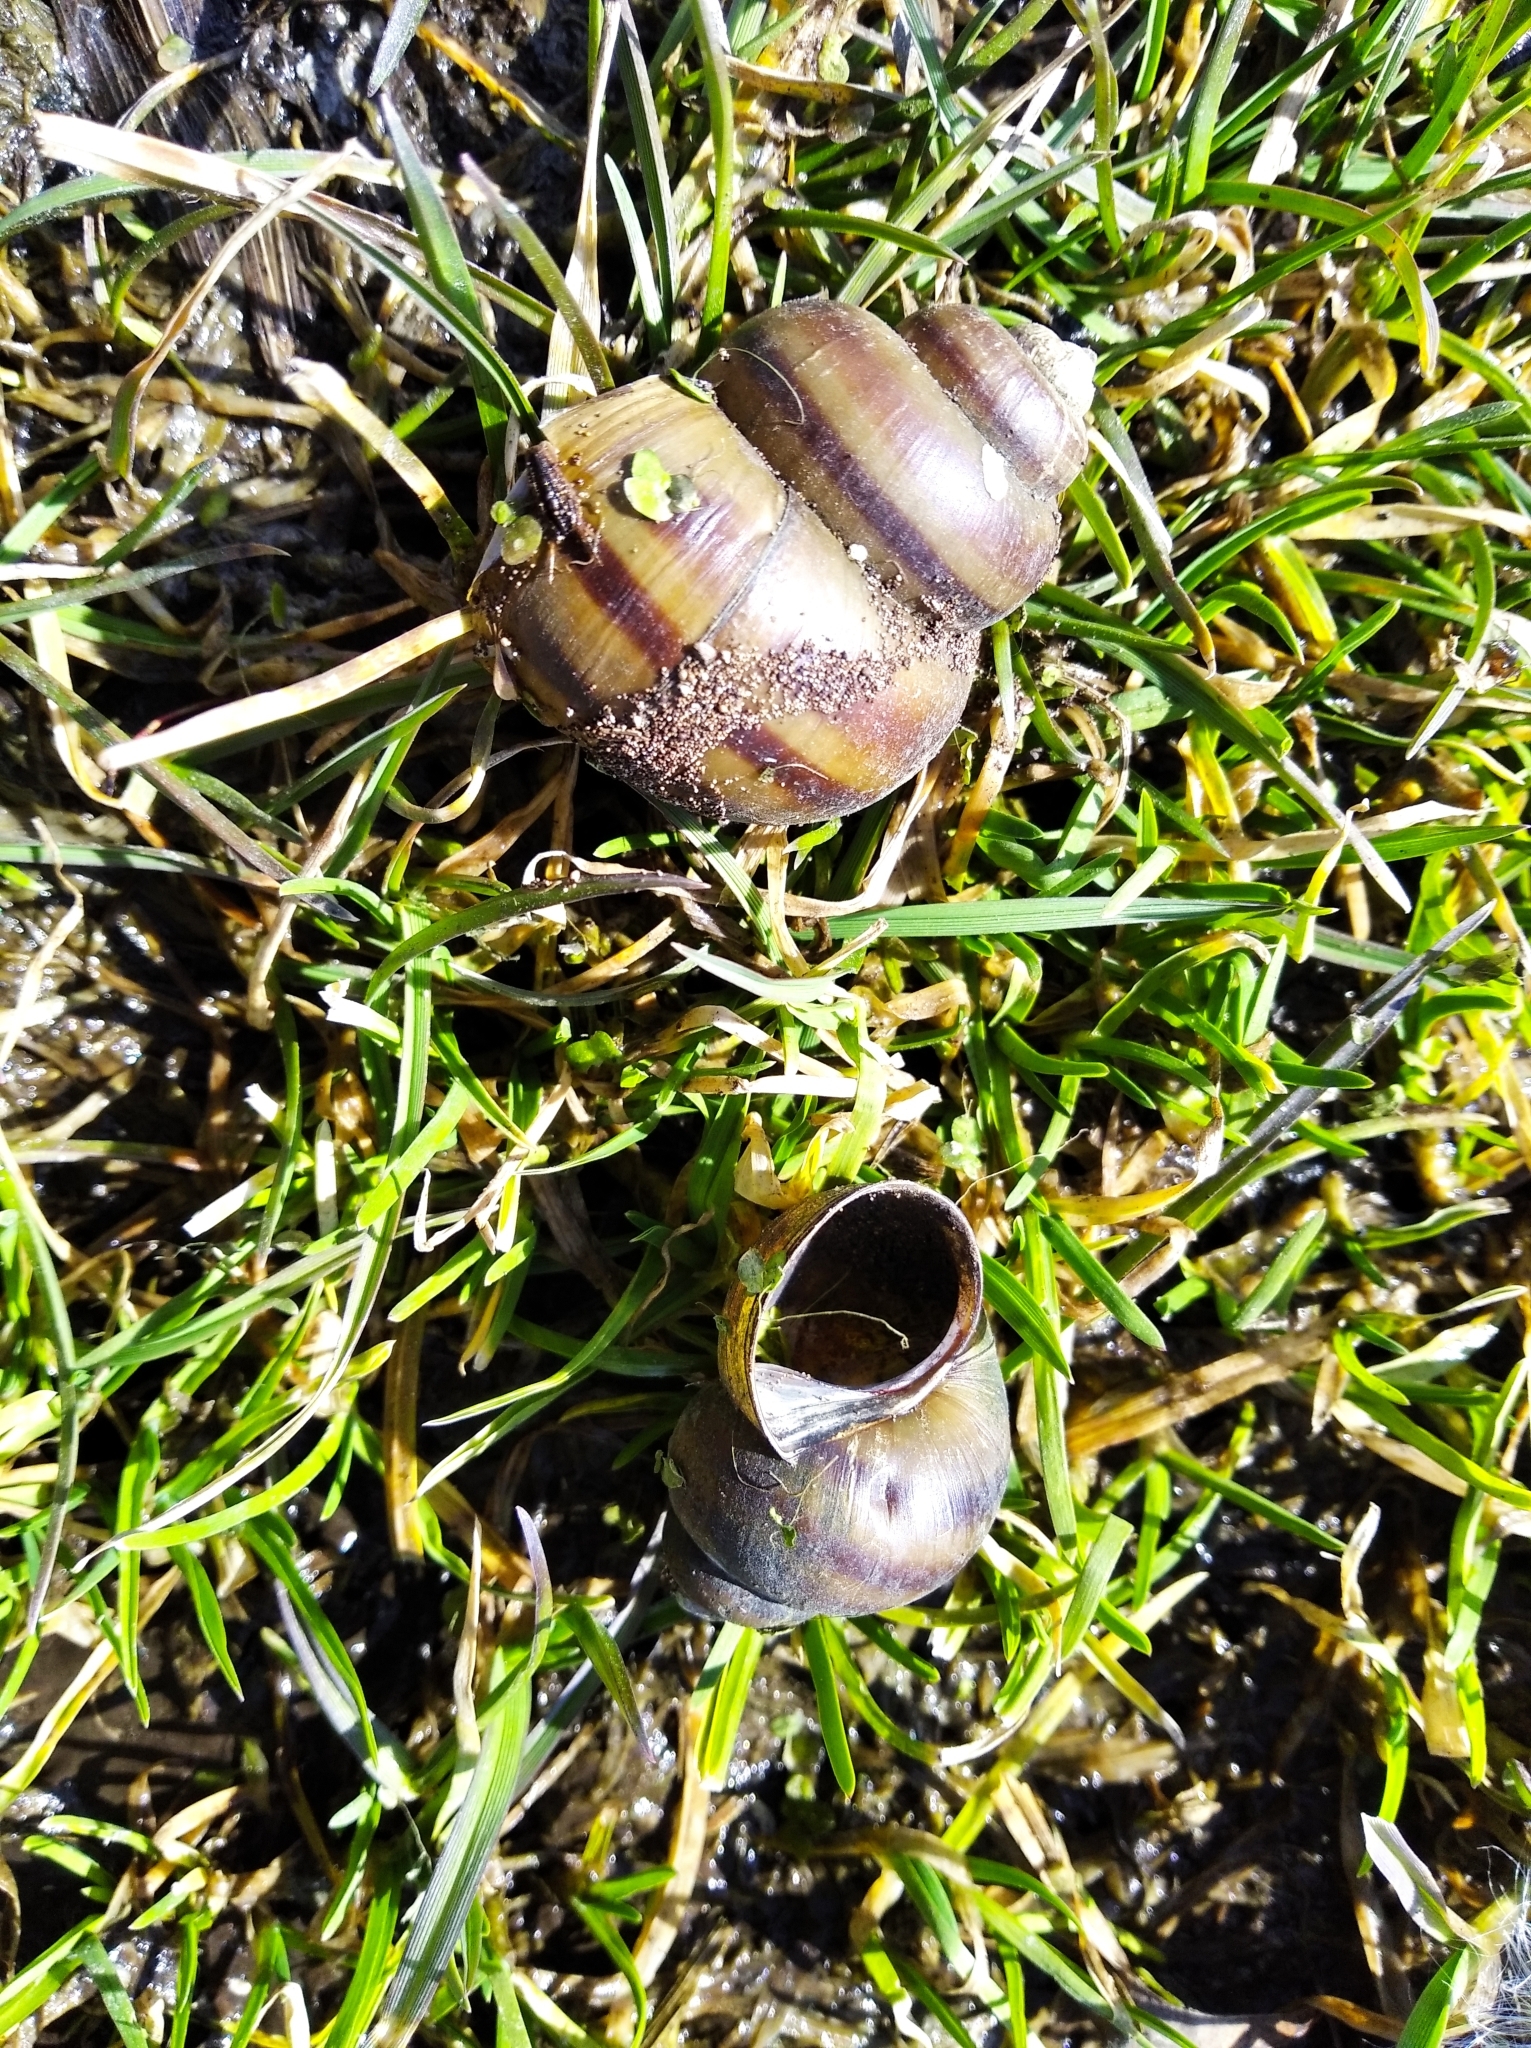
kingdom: Animalia
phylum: Mollusca
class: Gastropoda
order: Architaenioglossa
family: Viviparidae
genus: Viviparus
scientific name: Viviparus contectus
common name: Lister's river snail
